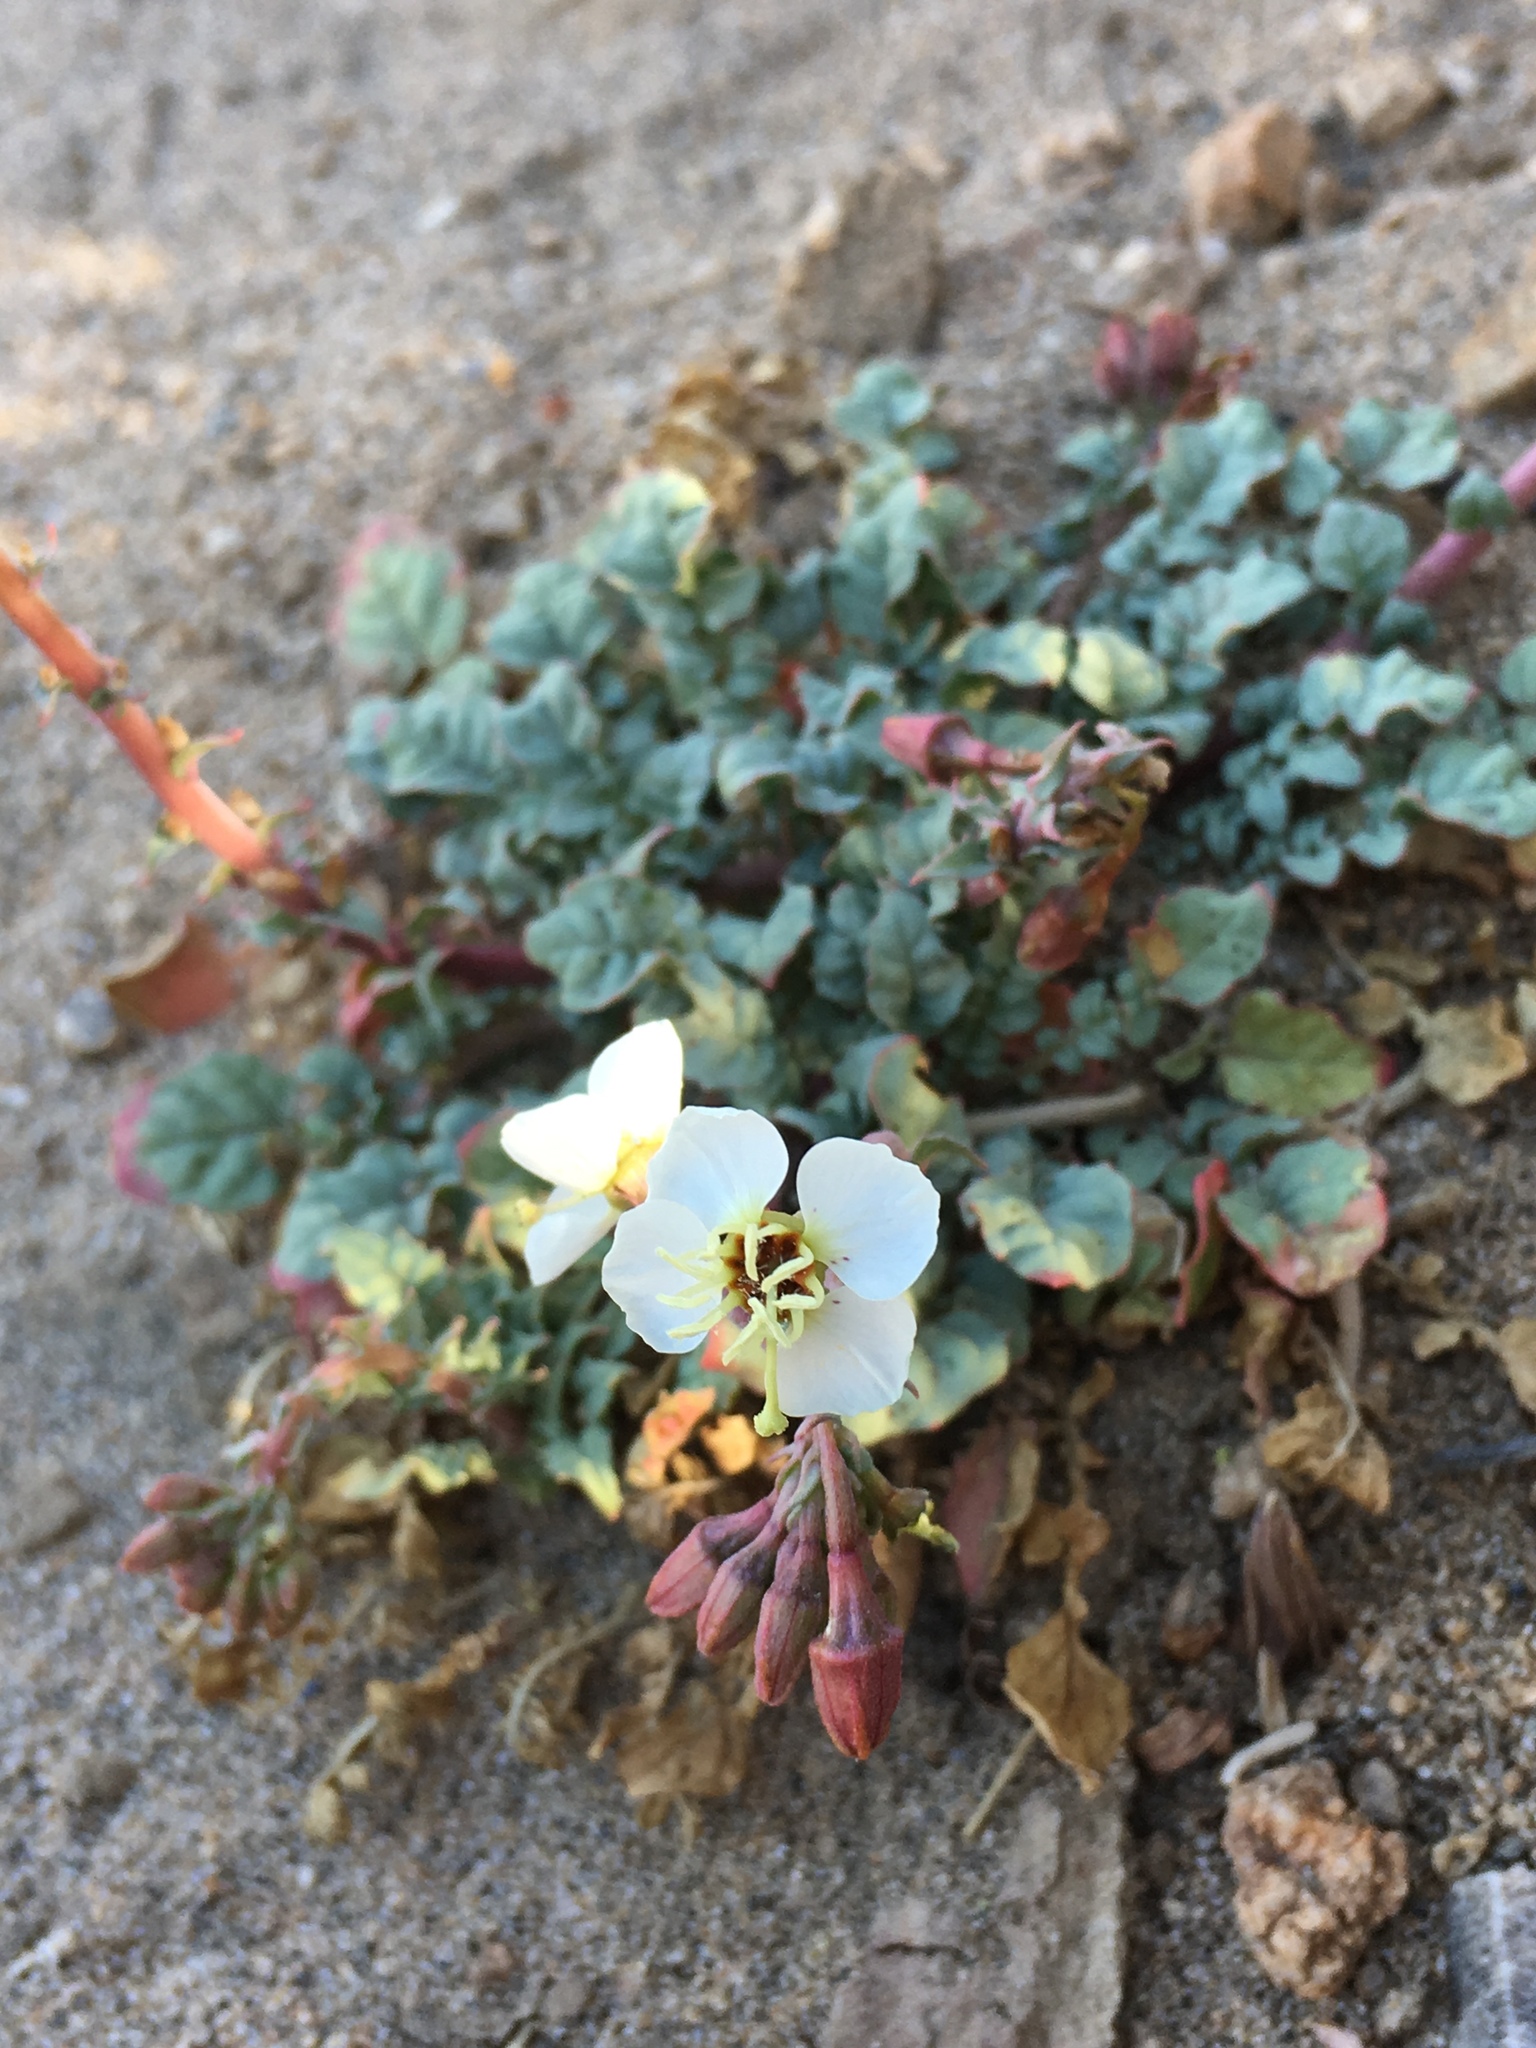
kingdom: Plantae
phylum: Tracheophyta
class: Magnoliopsida
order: Myrtales
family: Onagraceae
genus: Chylismia
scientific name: Chylismia claviformis
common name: Browneyes
